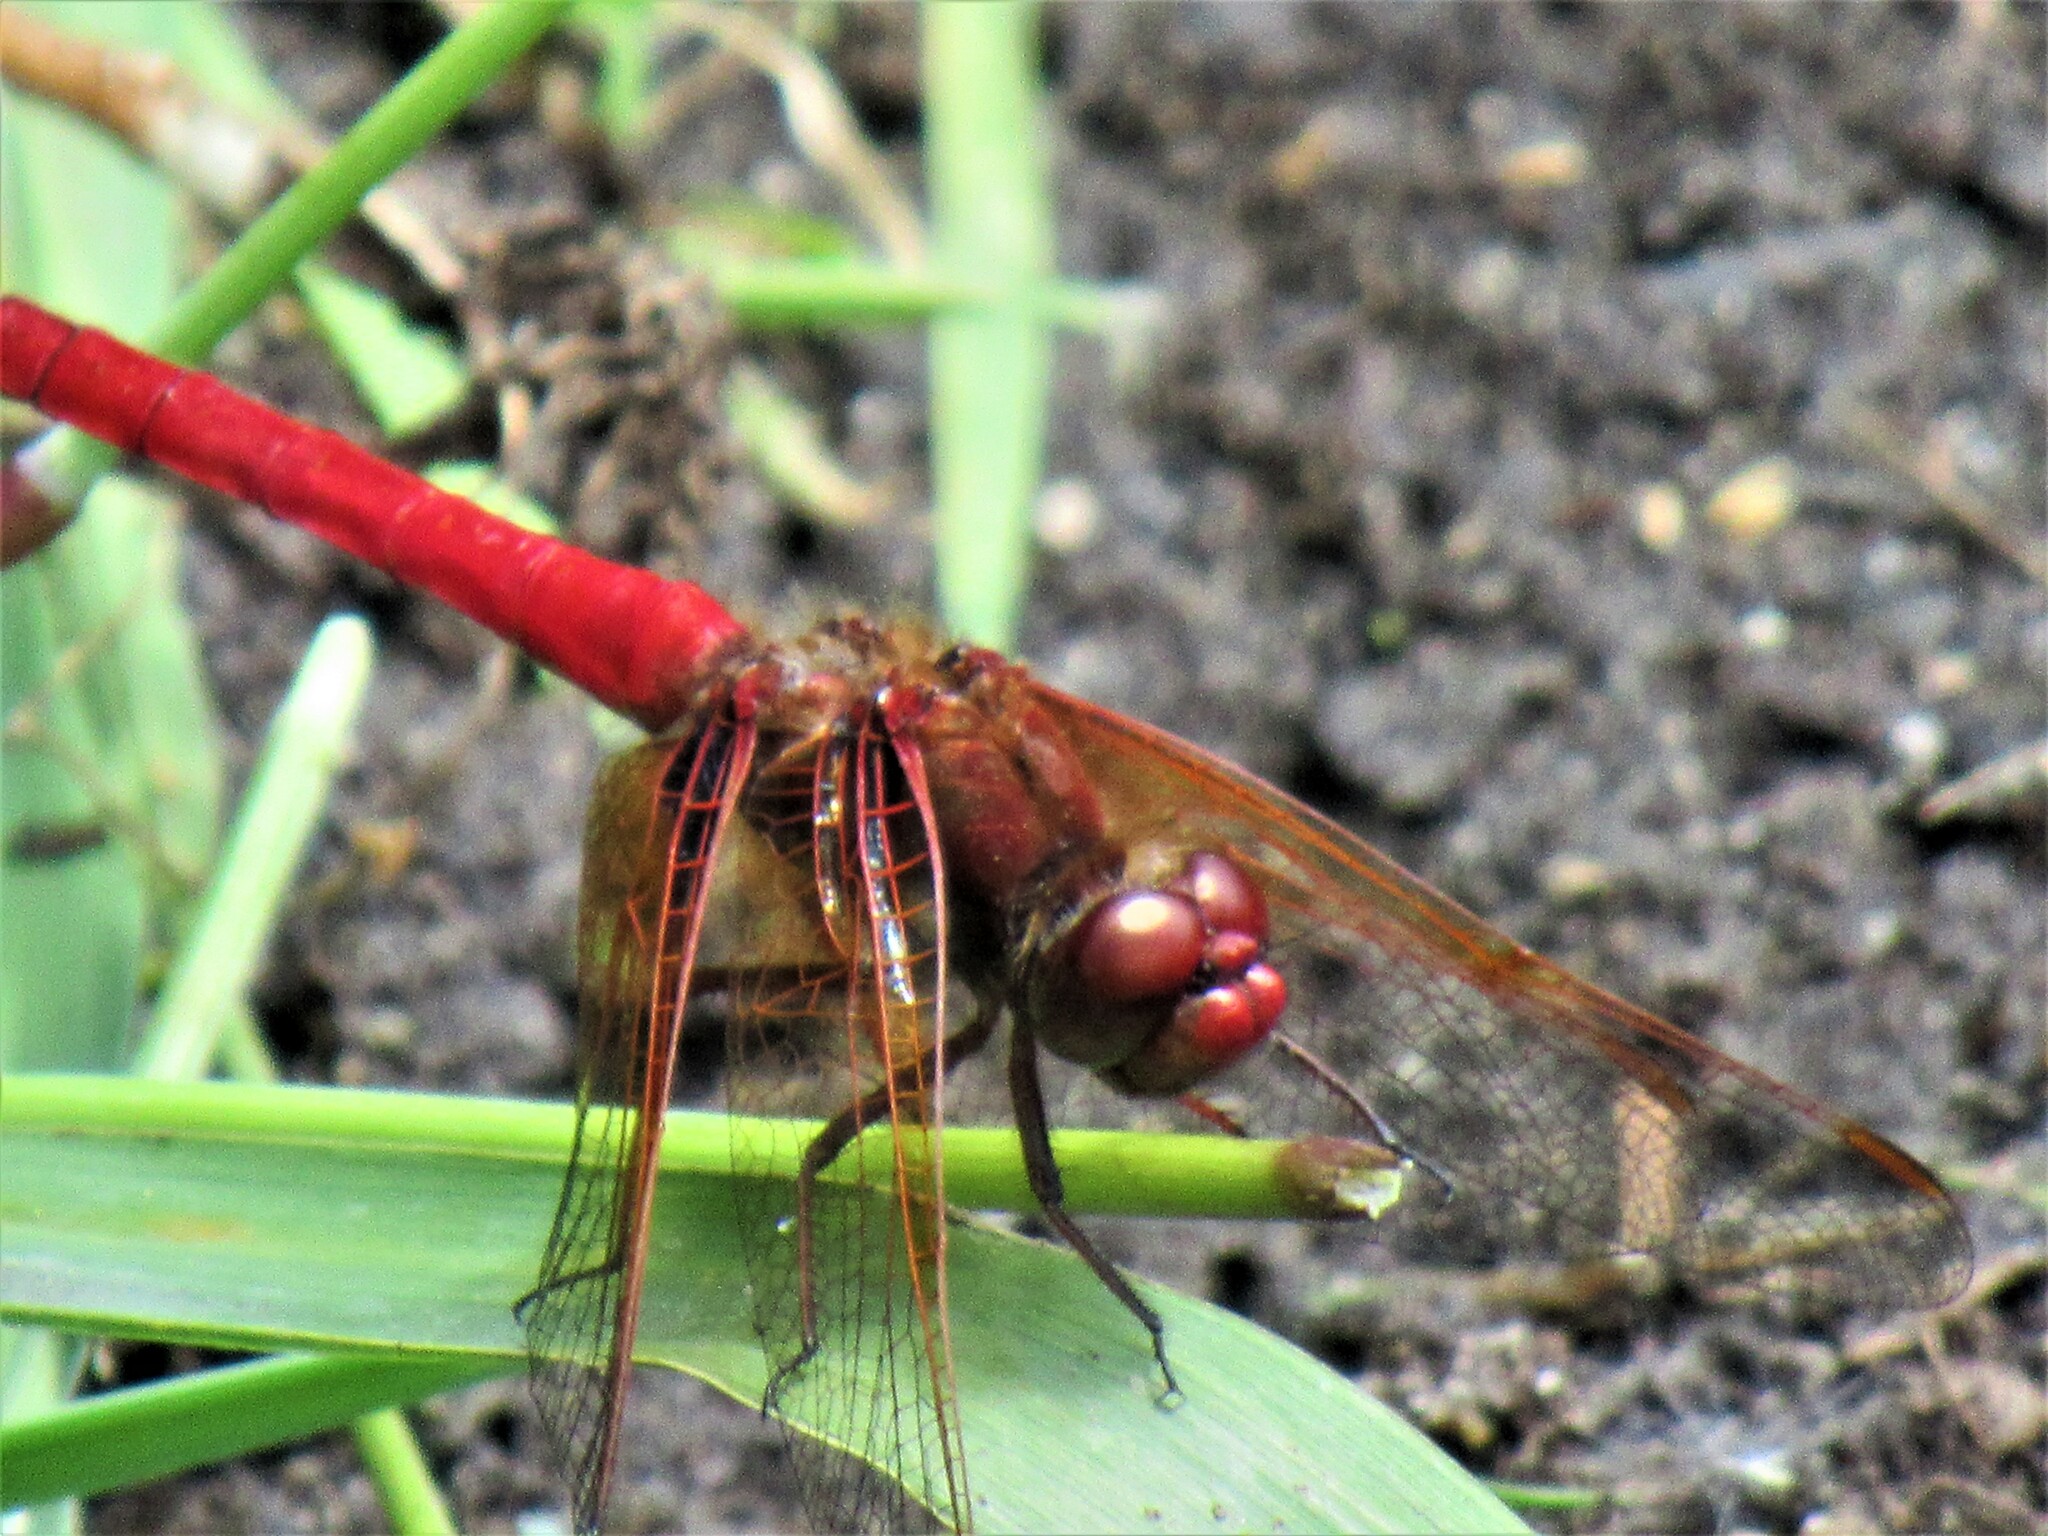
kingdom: Animalia
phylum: Arthropoda
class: Insecta
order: Odonata
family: Libellulidae
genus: Sympetrum
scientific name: Sympetrum illotum
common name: Cardinal meadowhawk
